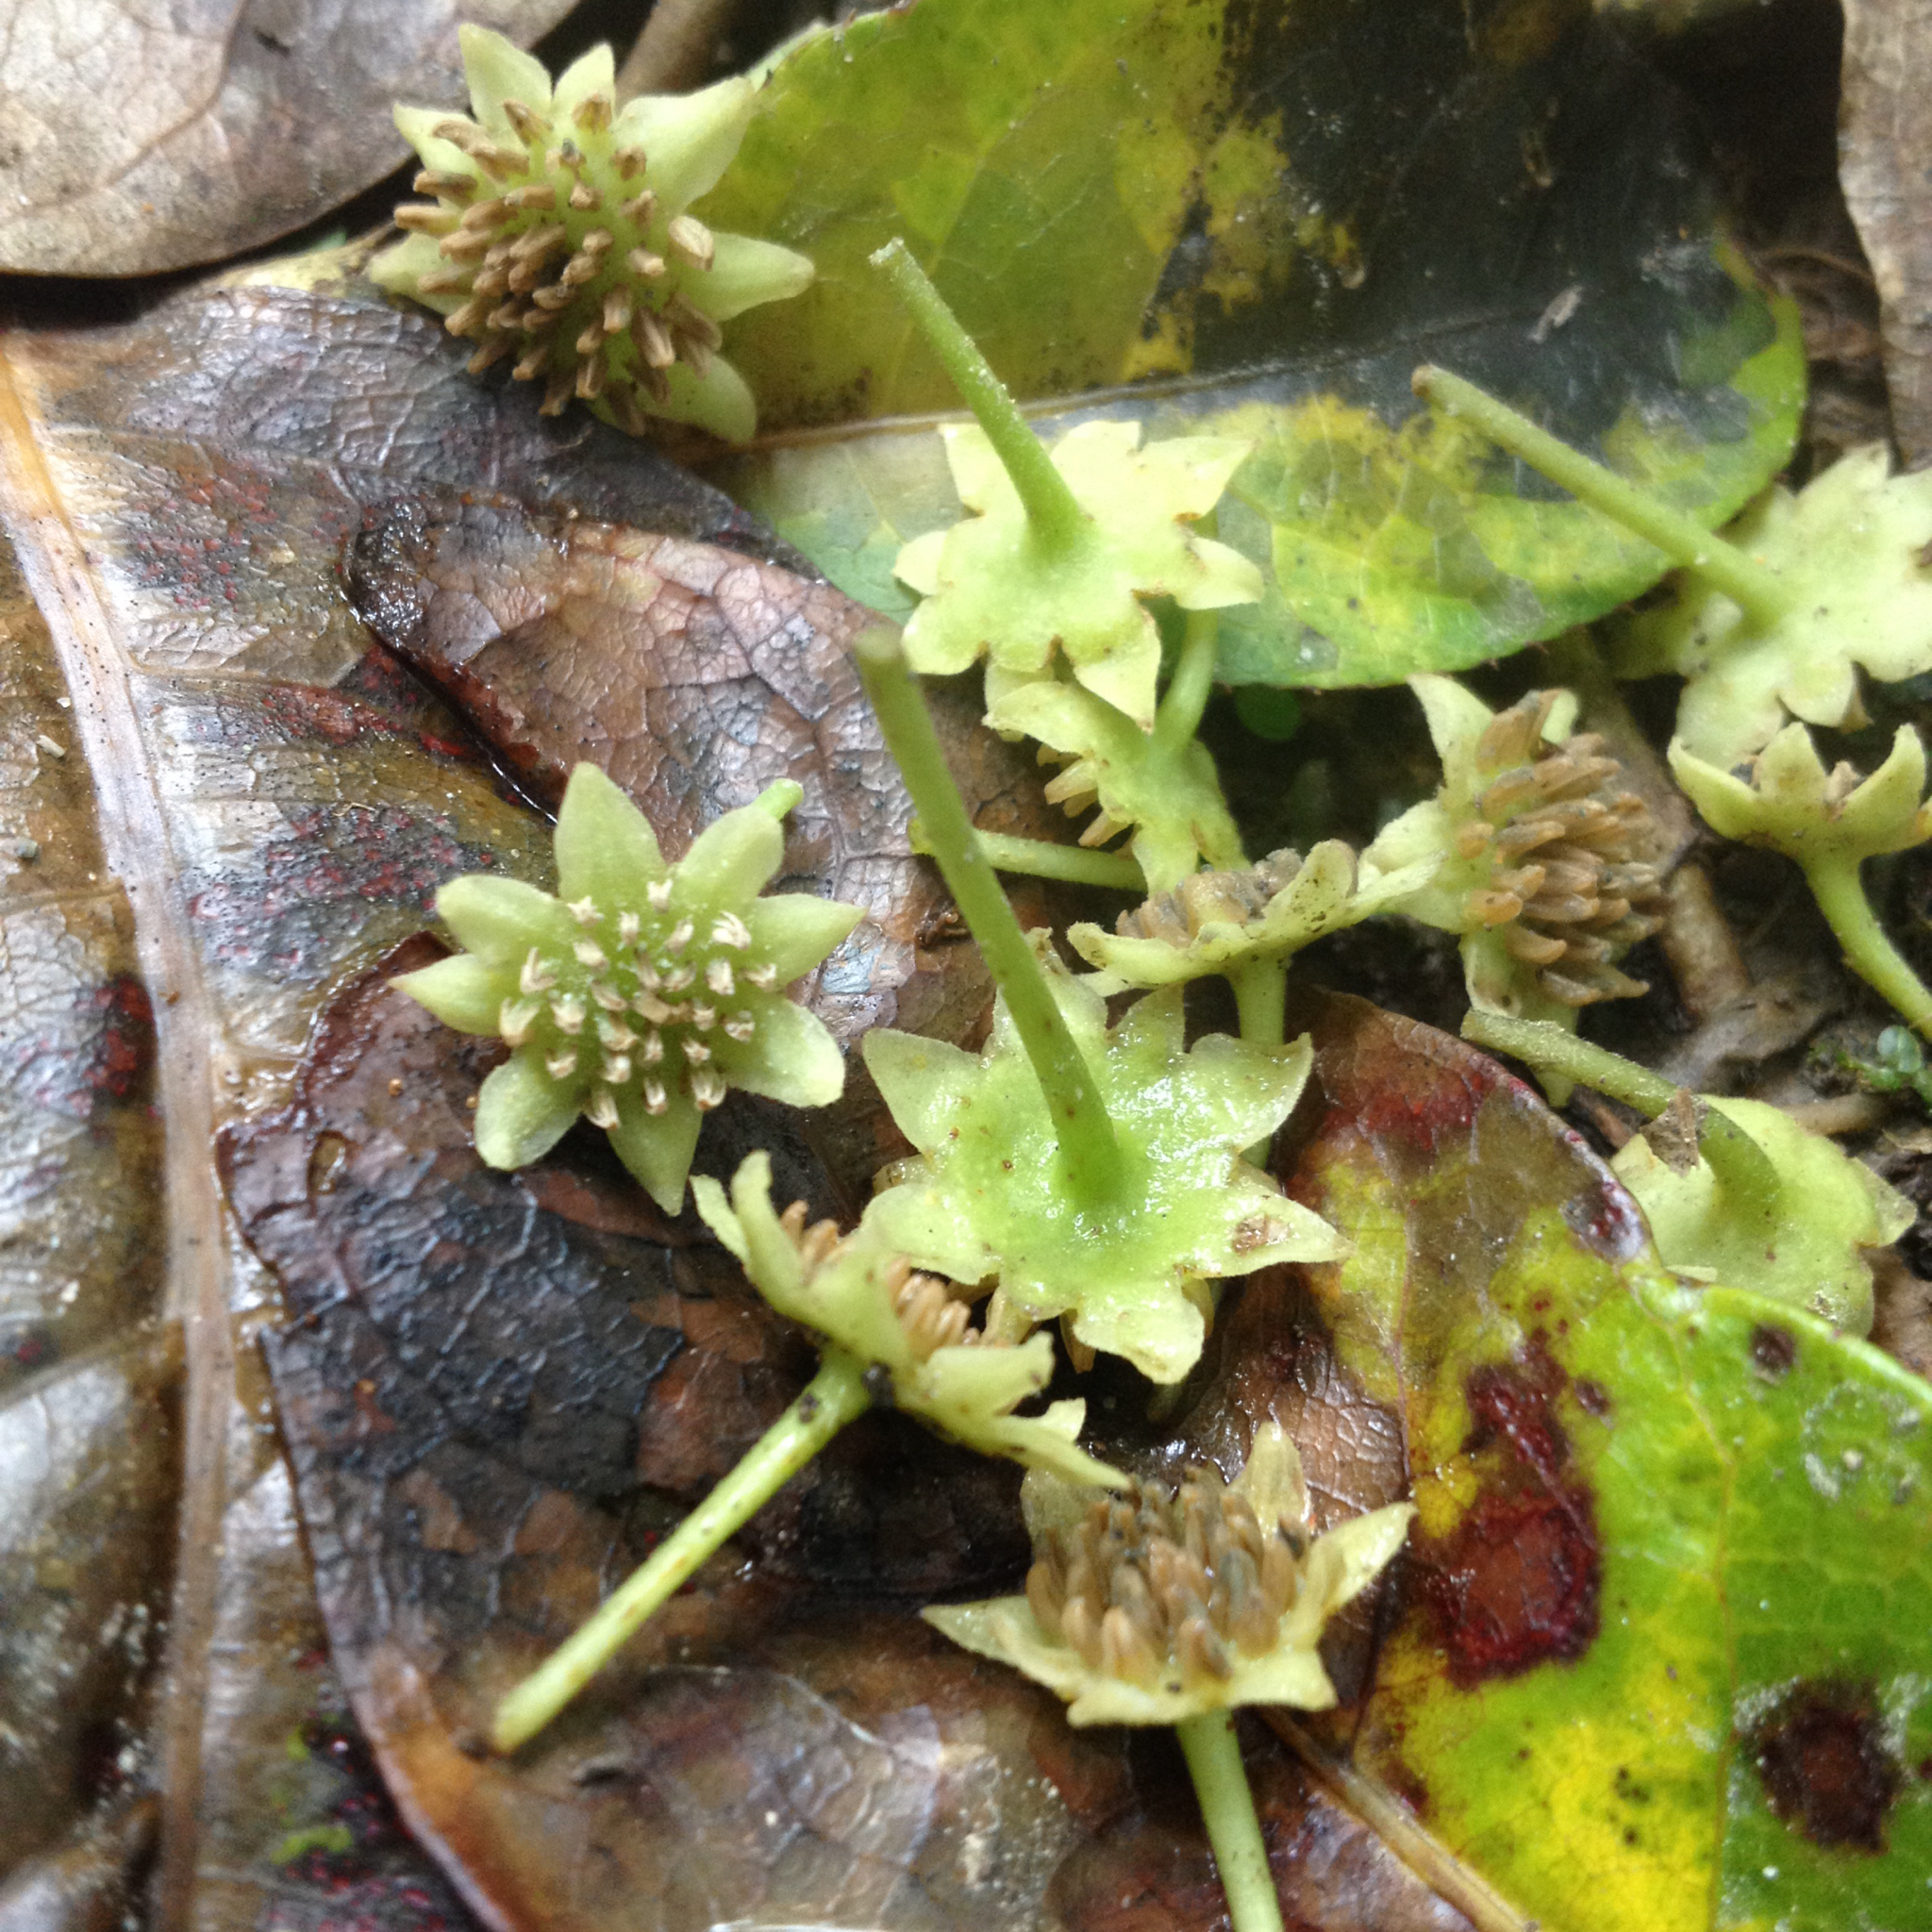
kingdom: Plantae
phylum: Tracheophyta
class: Magnoliopsida
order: Laurales
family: Monimiaceae
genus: Hedycarya
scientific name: Hedycarya arborea
